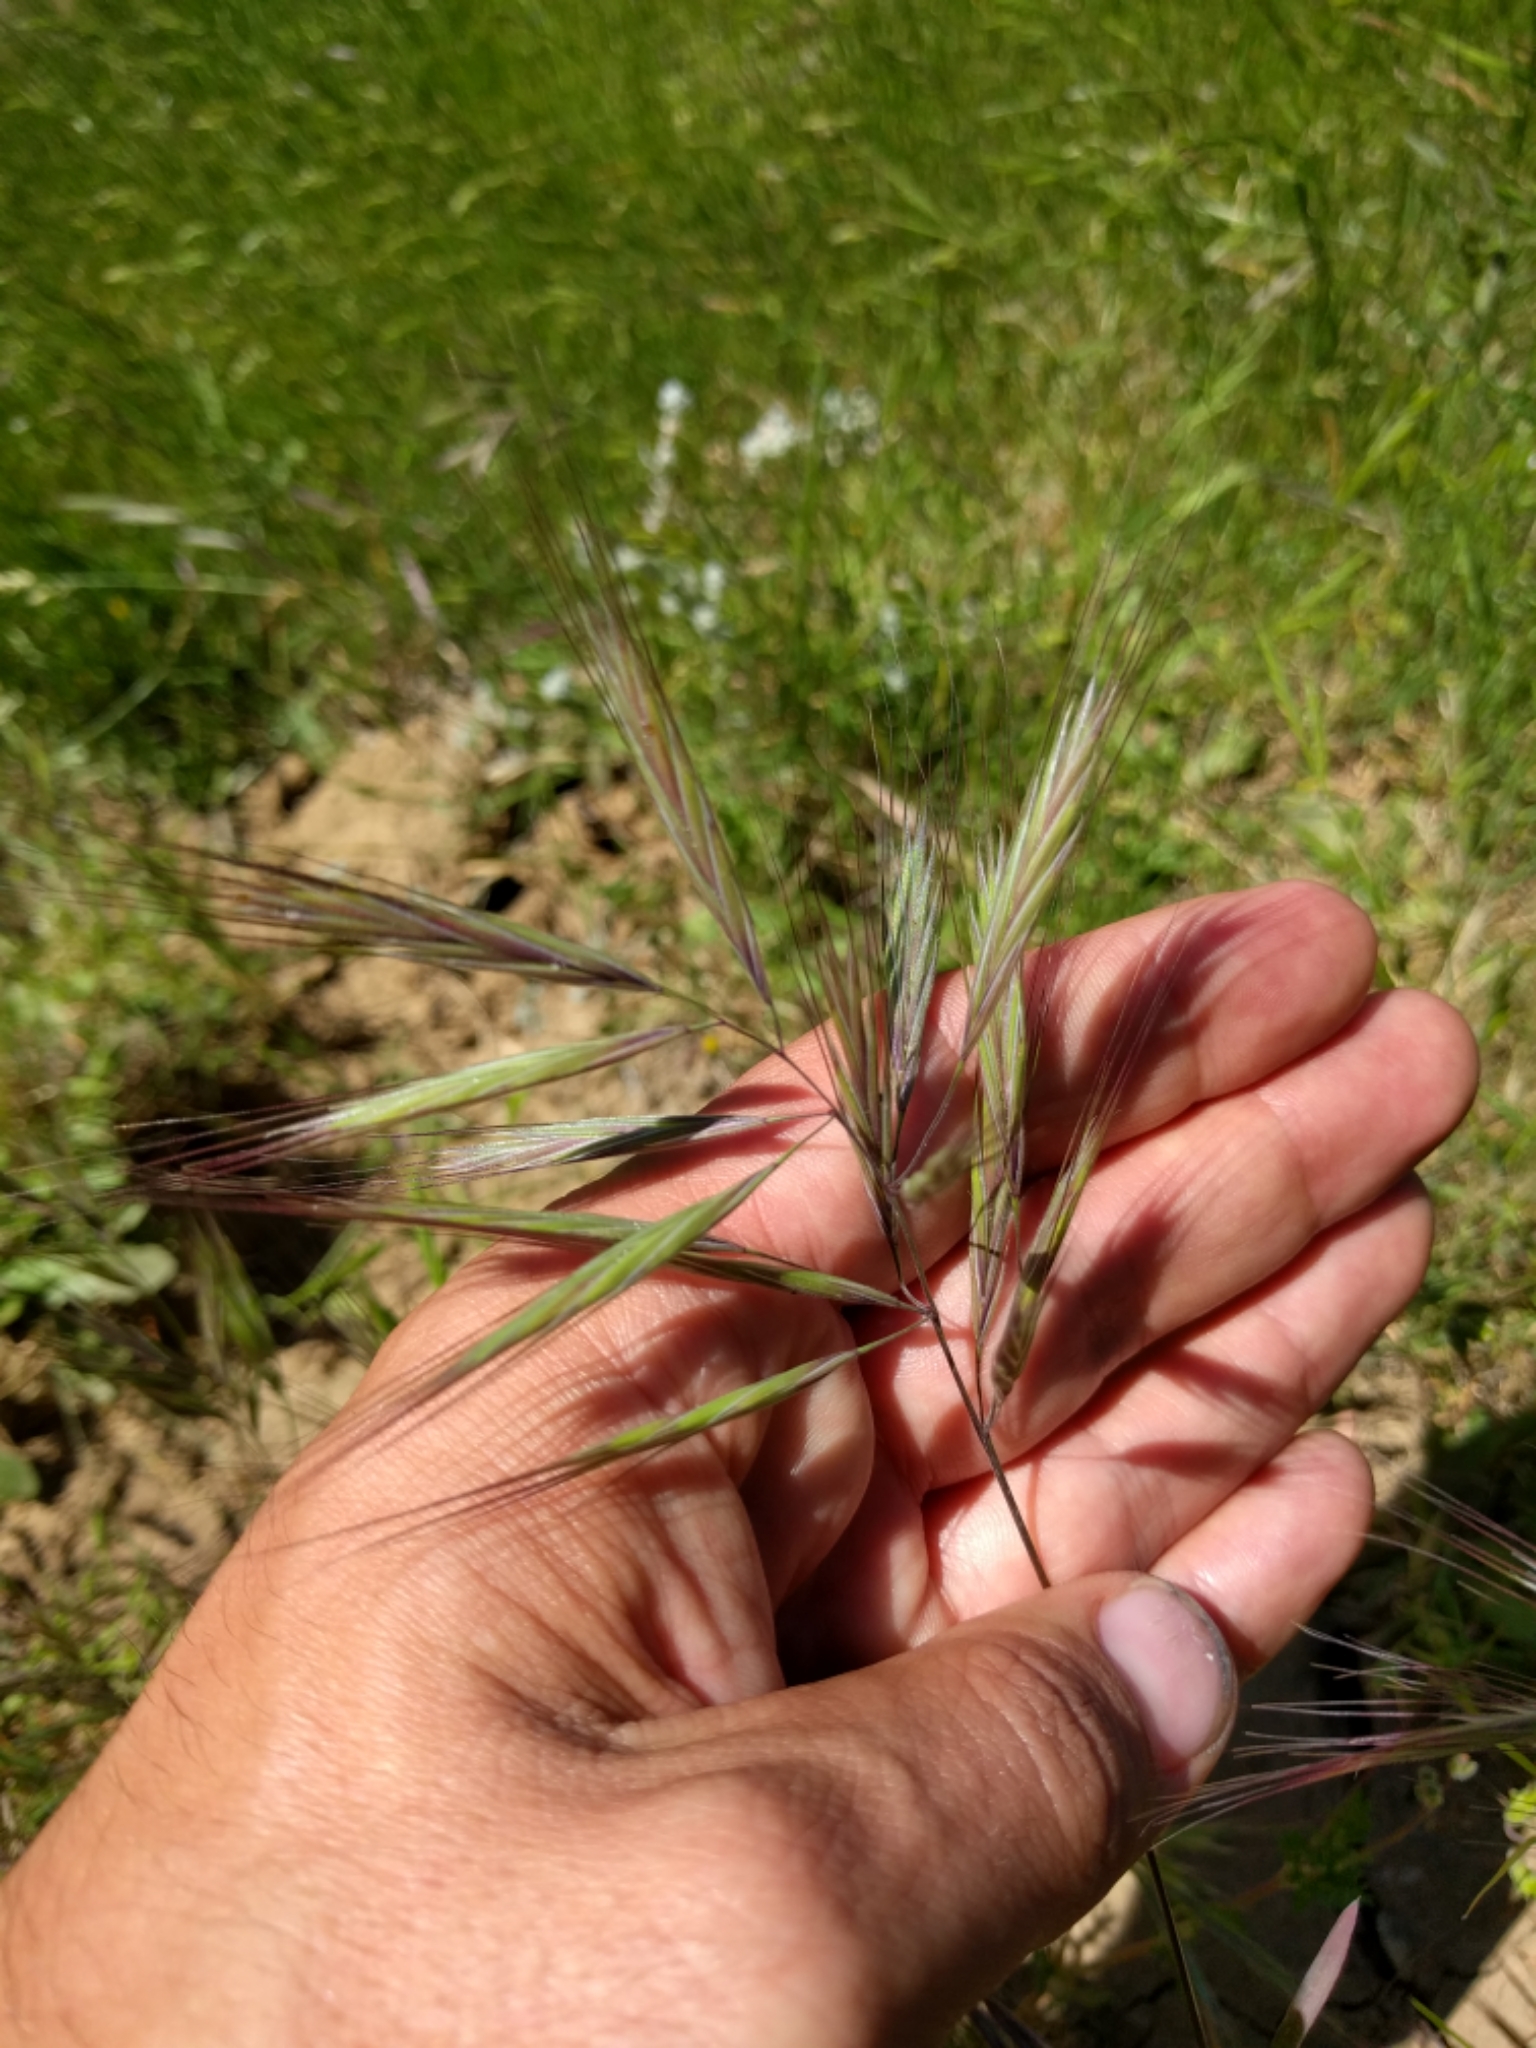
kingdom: Plantae
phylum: Tracheophyta
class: Liliopsida
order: Poales
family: Poaceae
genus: Bromus
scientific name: Bromus diandrus
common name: Ripgut brome
